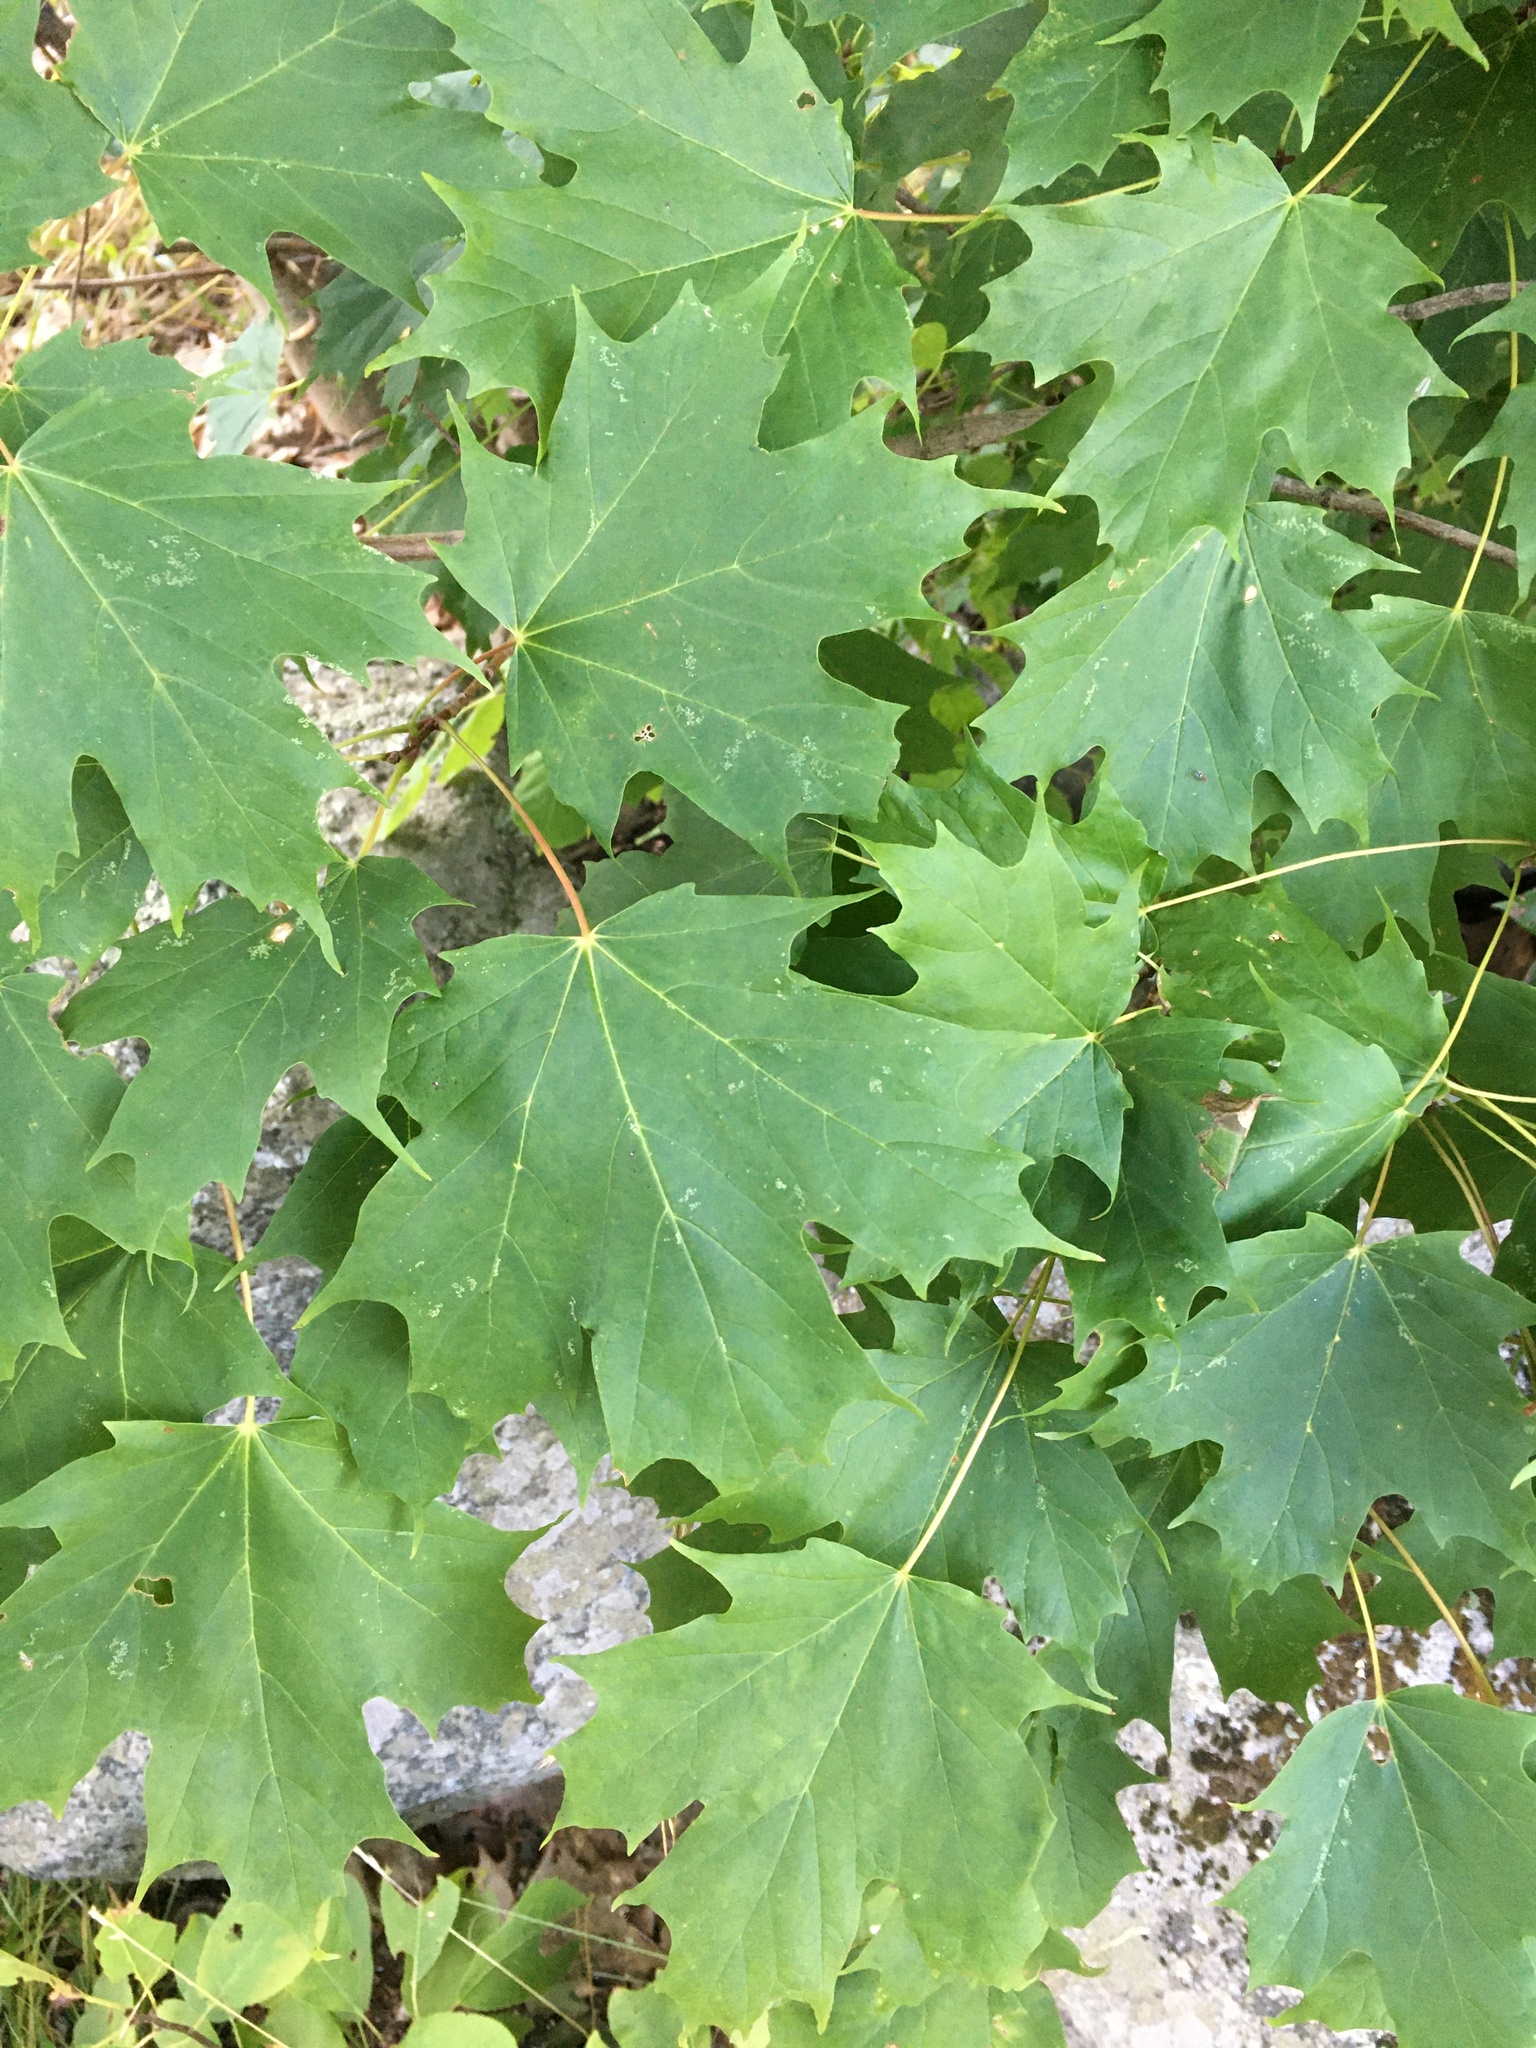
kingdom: Plantae
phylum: Tracheophyta
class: Magnoliopsida
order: Sapindales
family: Sapindaceae
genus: Acer
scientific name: Acer platanoides
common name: Norway maple
